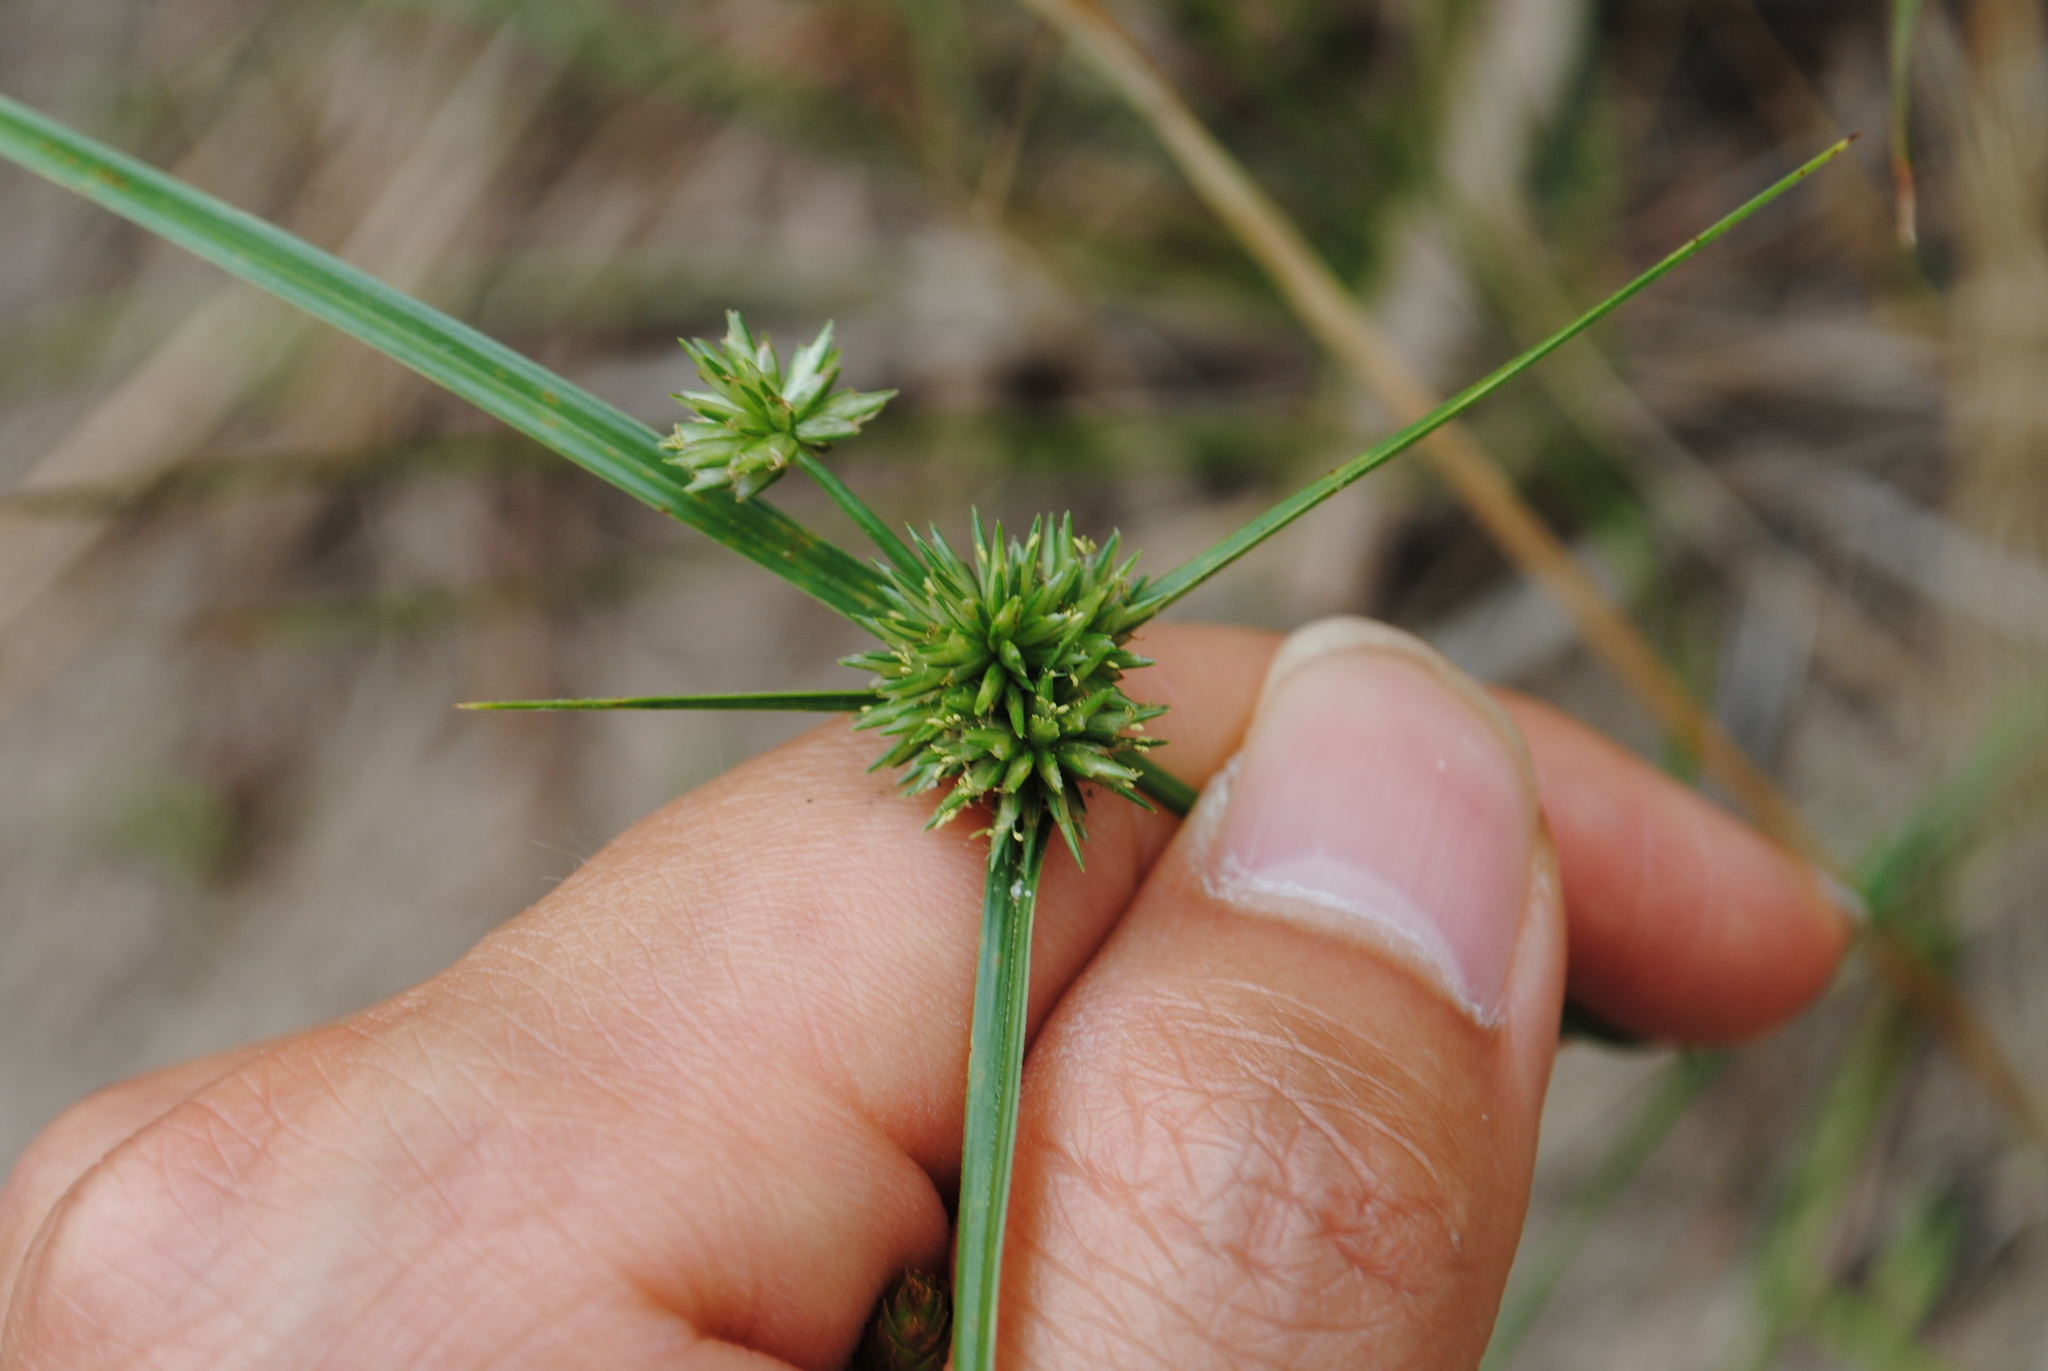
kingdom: Plantae
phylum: Tracheophyta
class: Liliopsida
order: Poales
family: Cyperaceae
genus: Cyperus
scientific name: Cyperus lupulinus
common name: Great plains flatsedge
